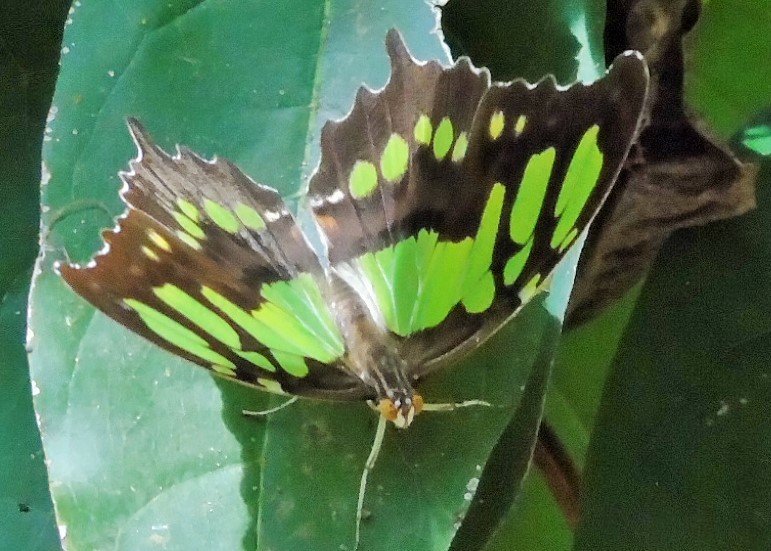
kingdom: Animalia
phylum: Arthropoda
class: Insecta
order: Lepidoptera
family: Nymphalidae
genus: Siproeta
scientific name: Siproeta stelenes
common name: Malachite
